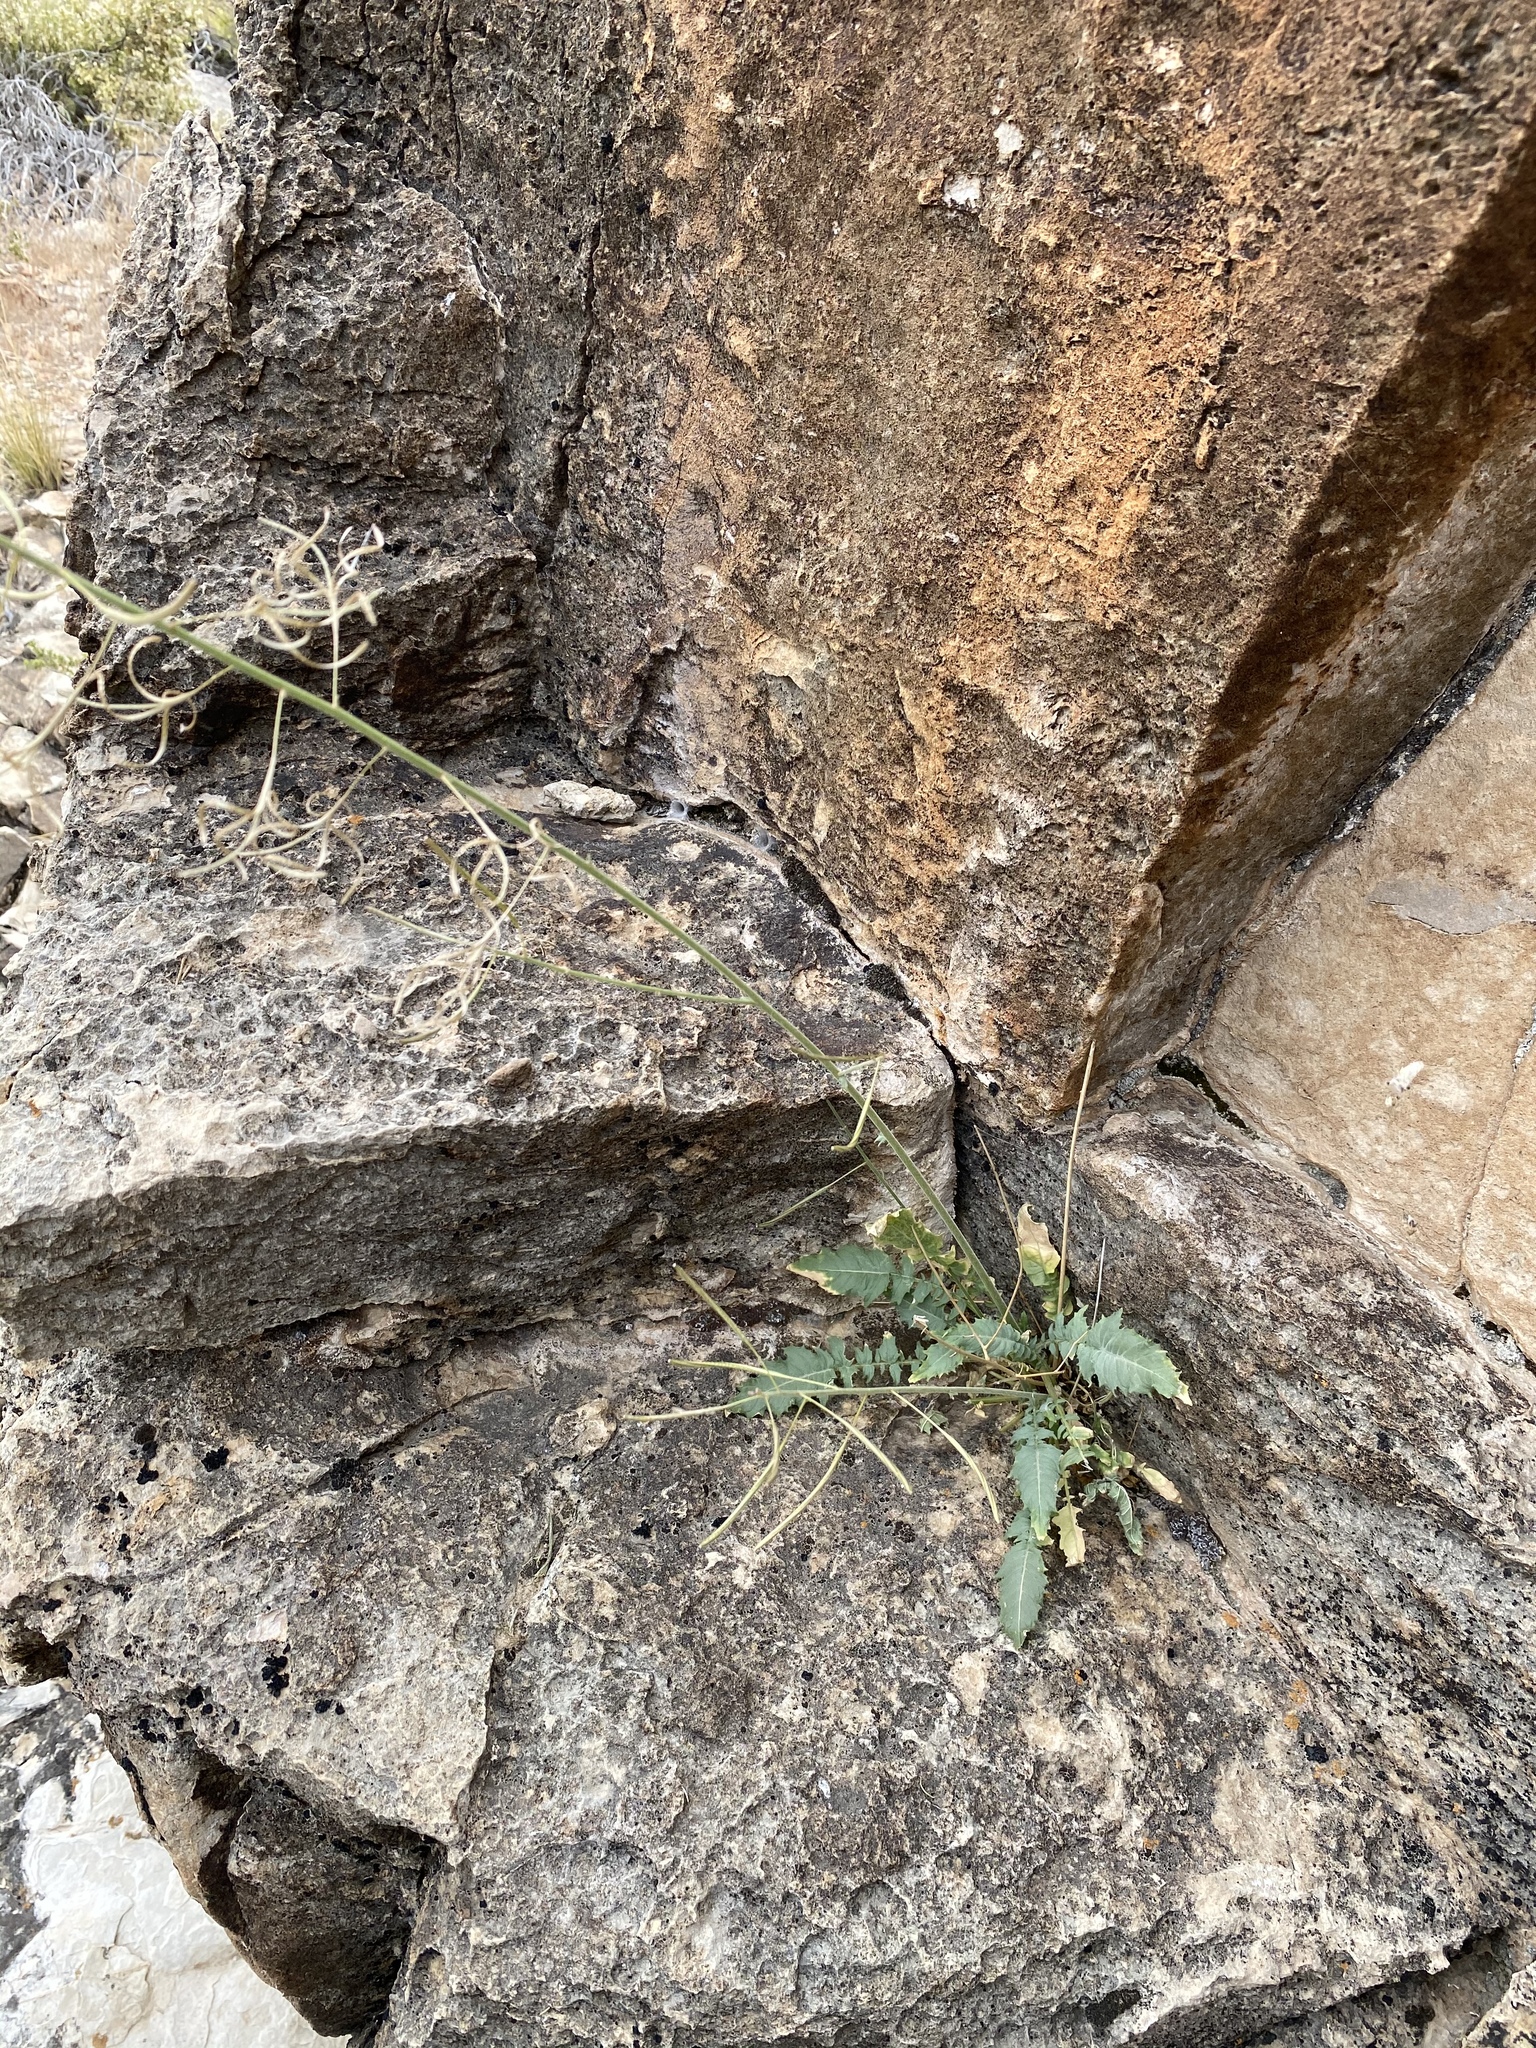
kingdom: Plantae
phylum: Tracheophyta
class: Magnoliopsida
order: Myrtales
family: Onagraceae
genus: Chylismia
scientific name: Chylismia walkeri
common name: Walker's suncup
